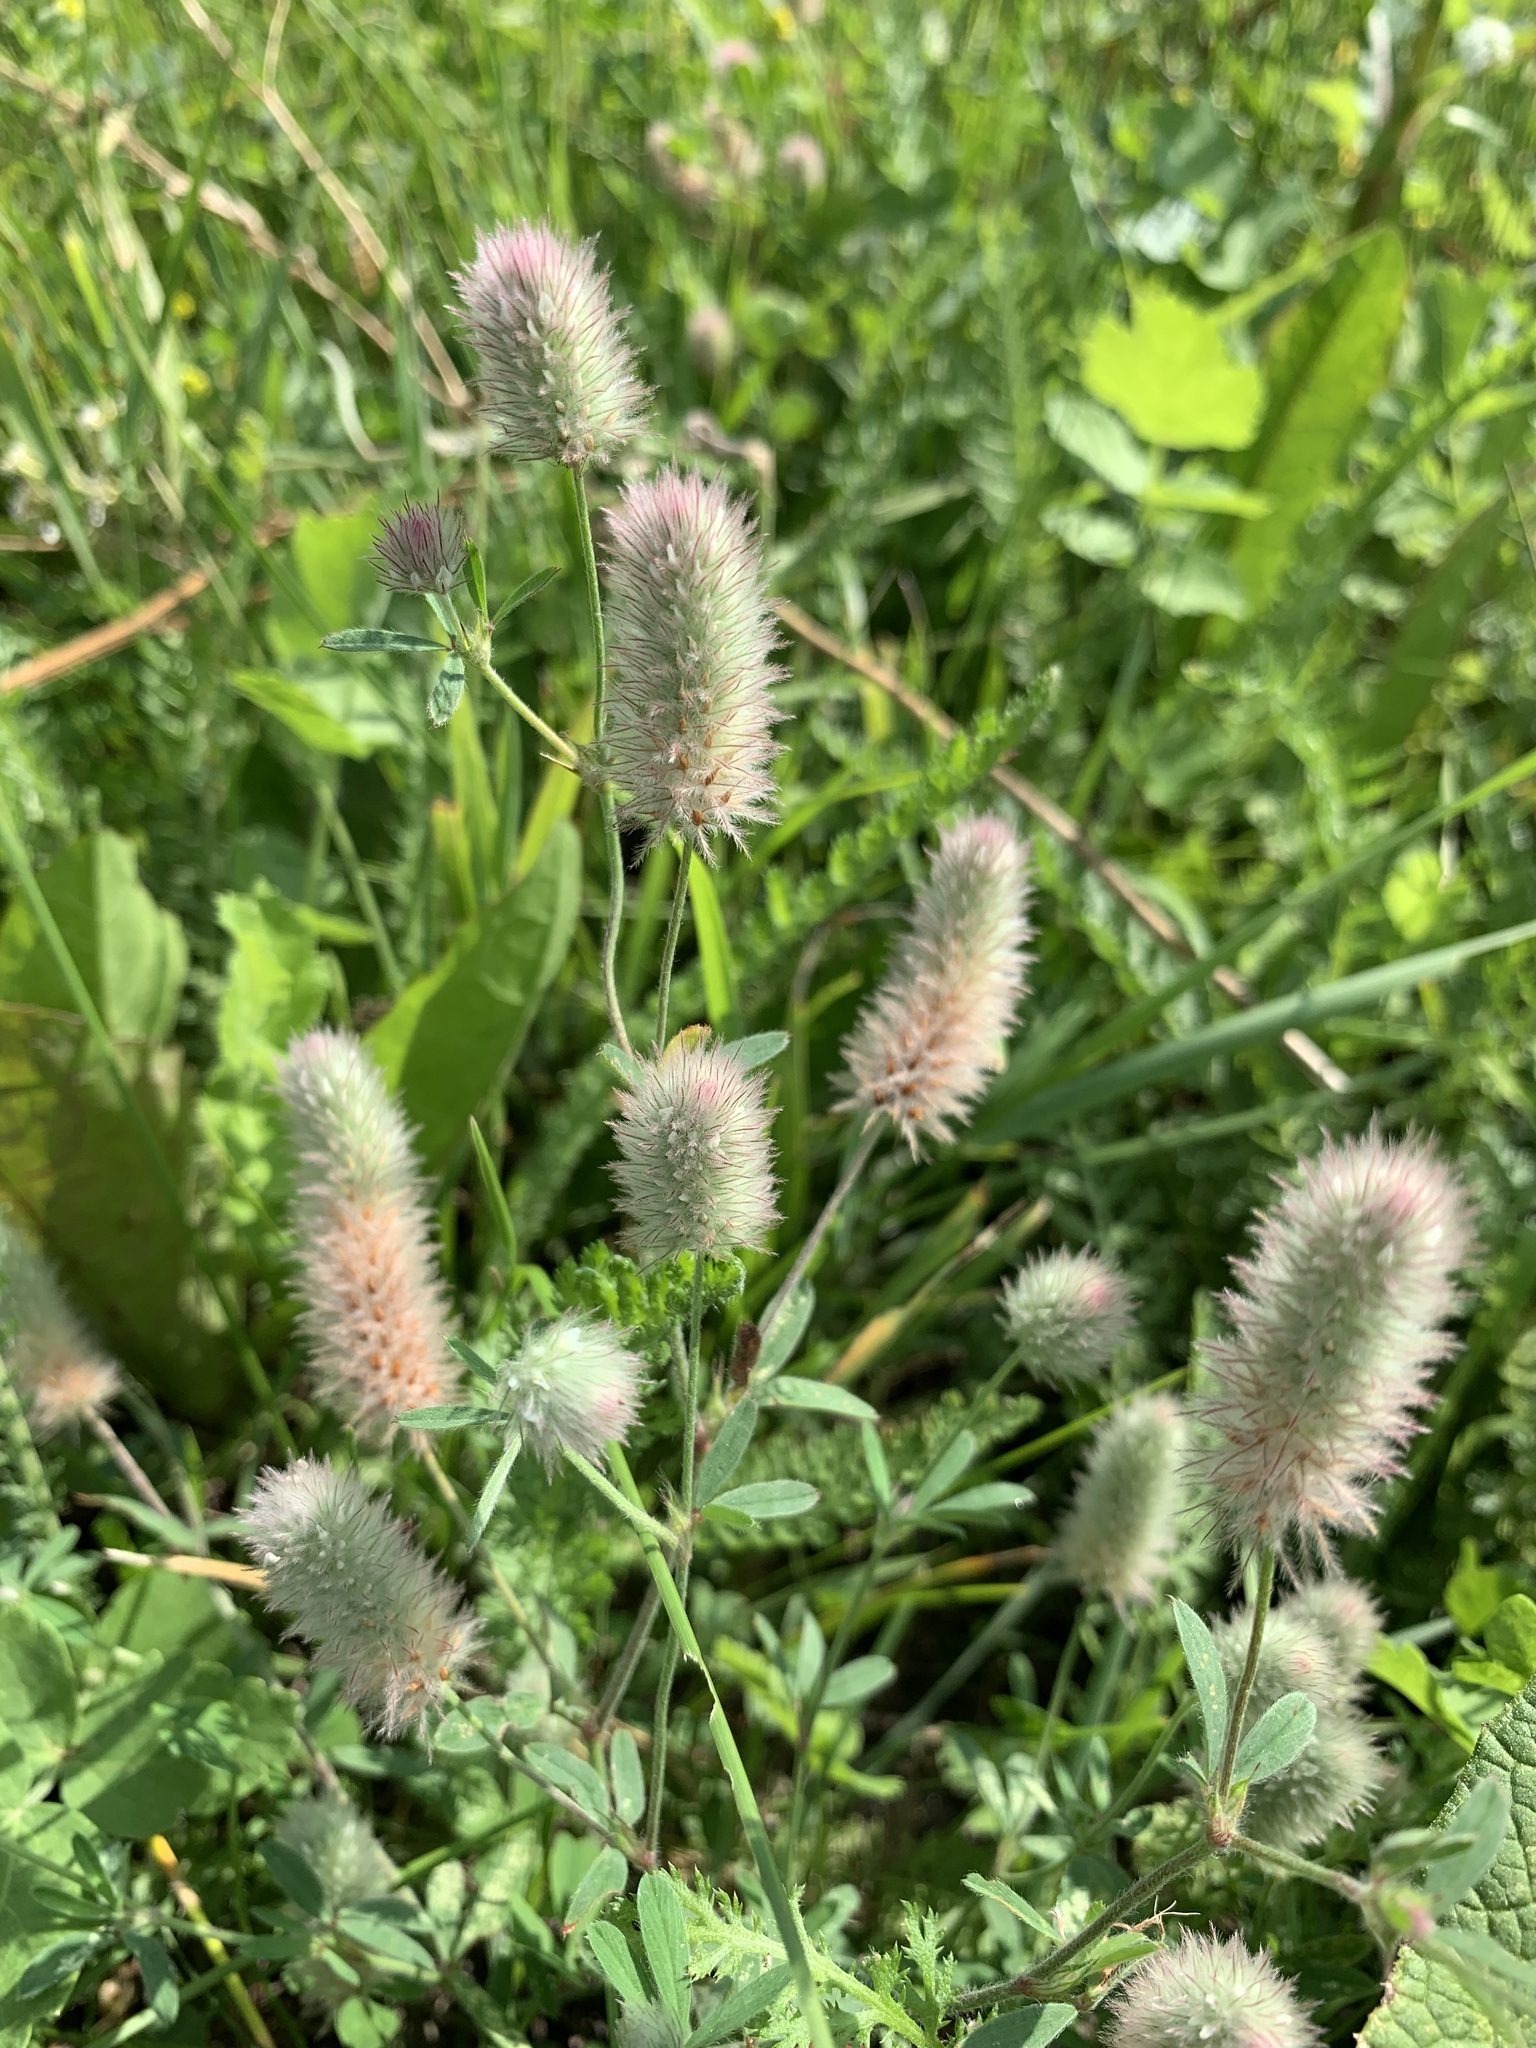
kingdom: Plantae
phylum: Tracheophyta
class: Magnoliopsida
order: Fabales
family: Fabaceae
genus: Trifolium
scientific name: Trifolium arvense
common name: Hare's-foot clover
